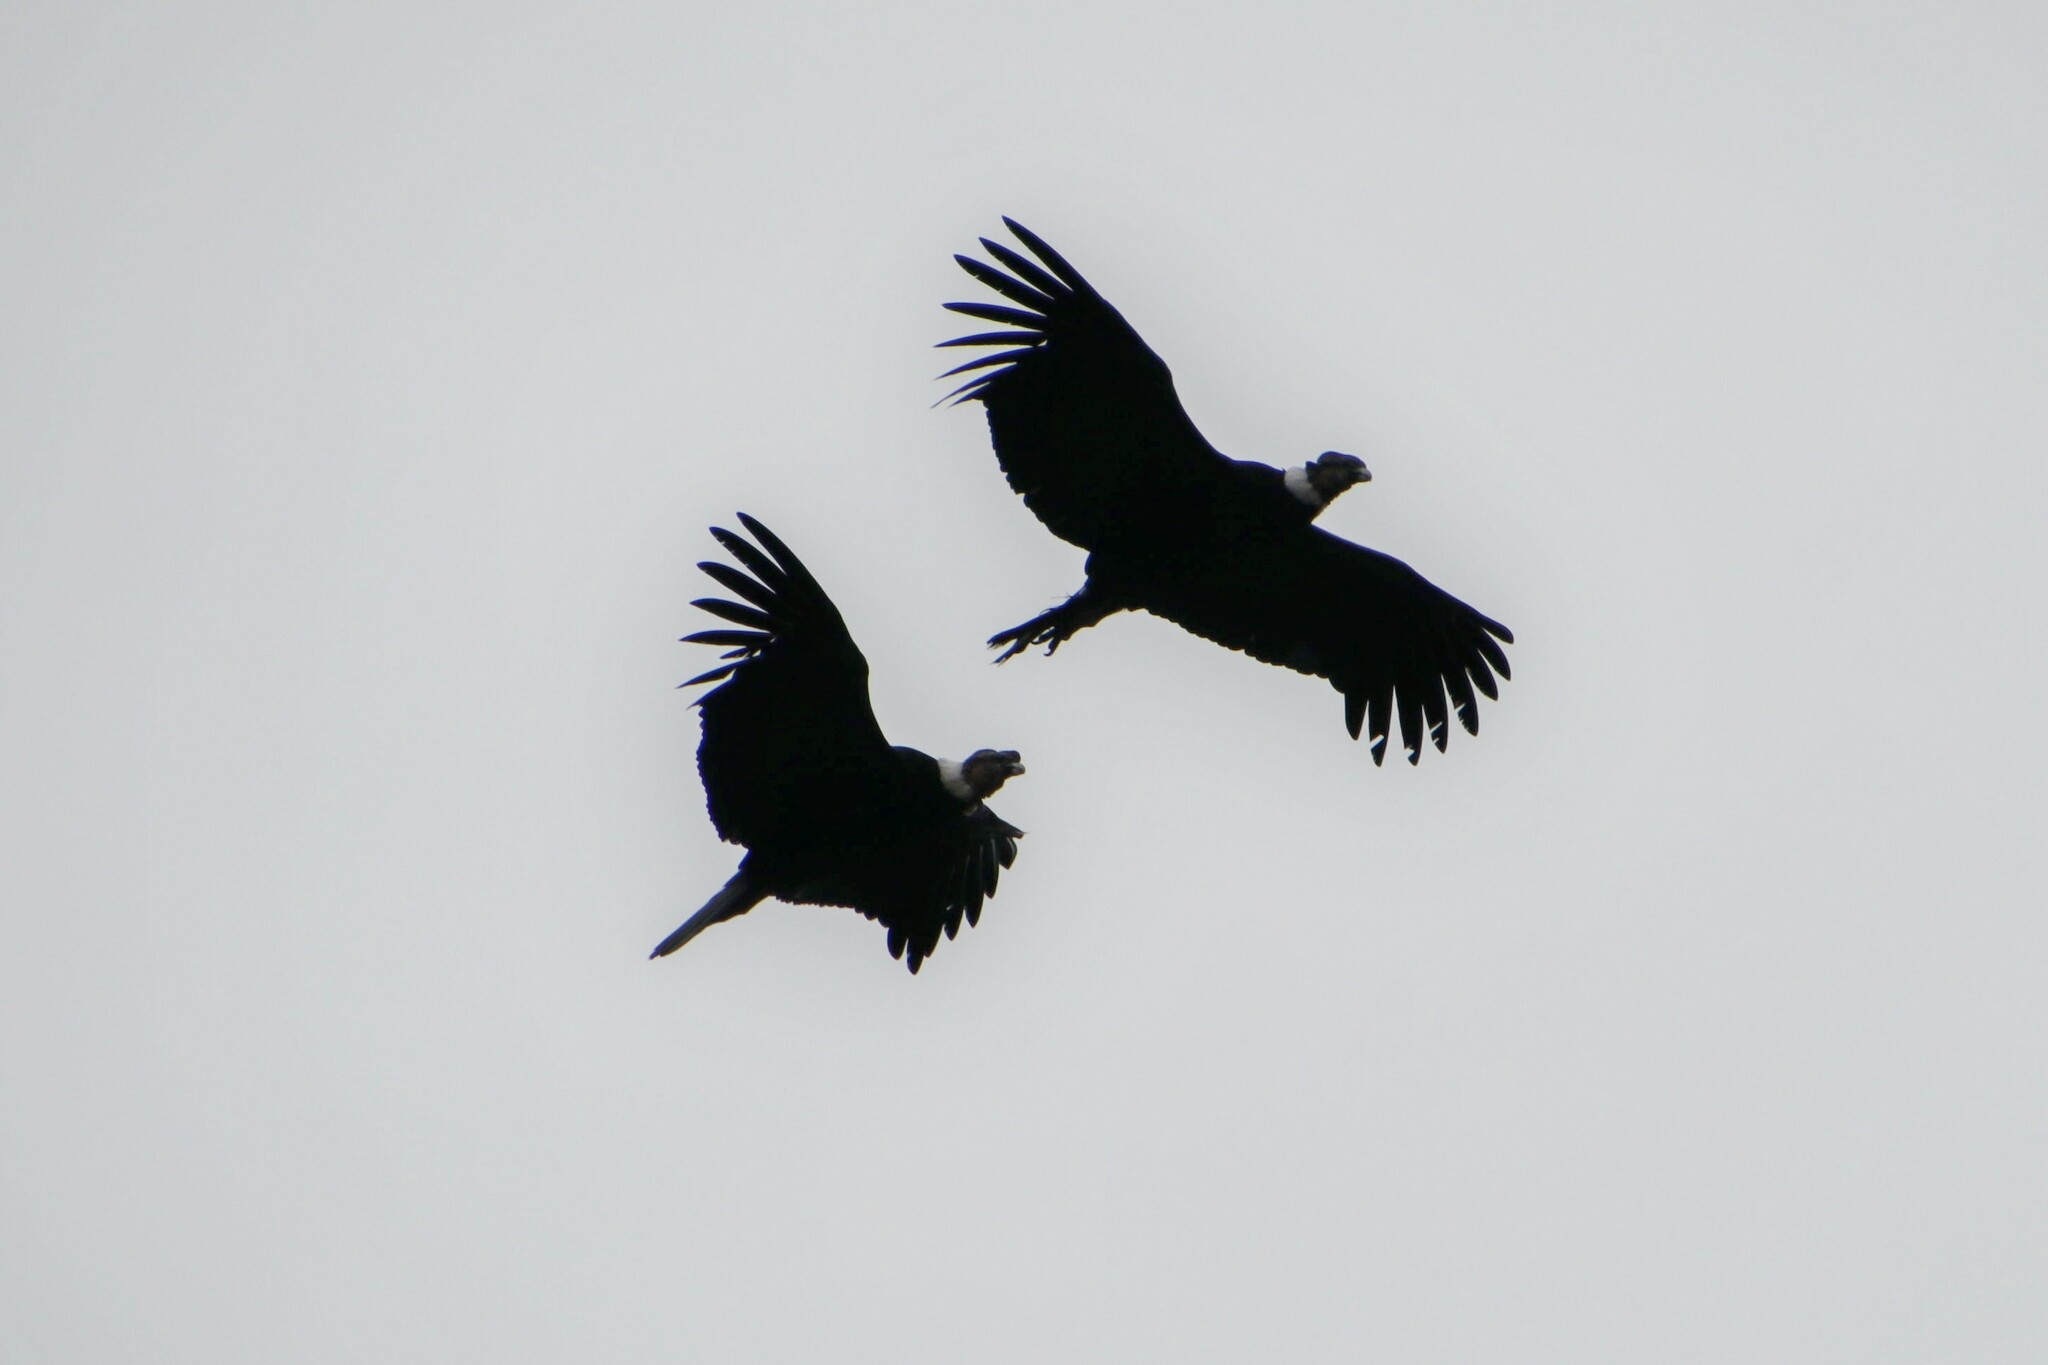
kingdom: Animalia
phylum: Chordata
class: Aves
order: Accipitriformes
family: Cathartidae
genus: Vultur
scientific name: Vultur gryphus
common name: Andean condor
